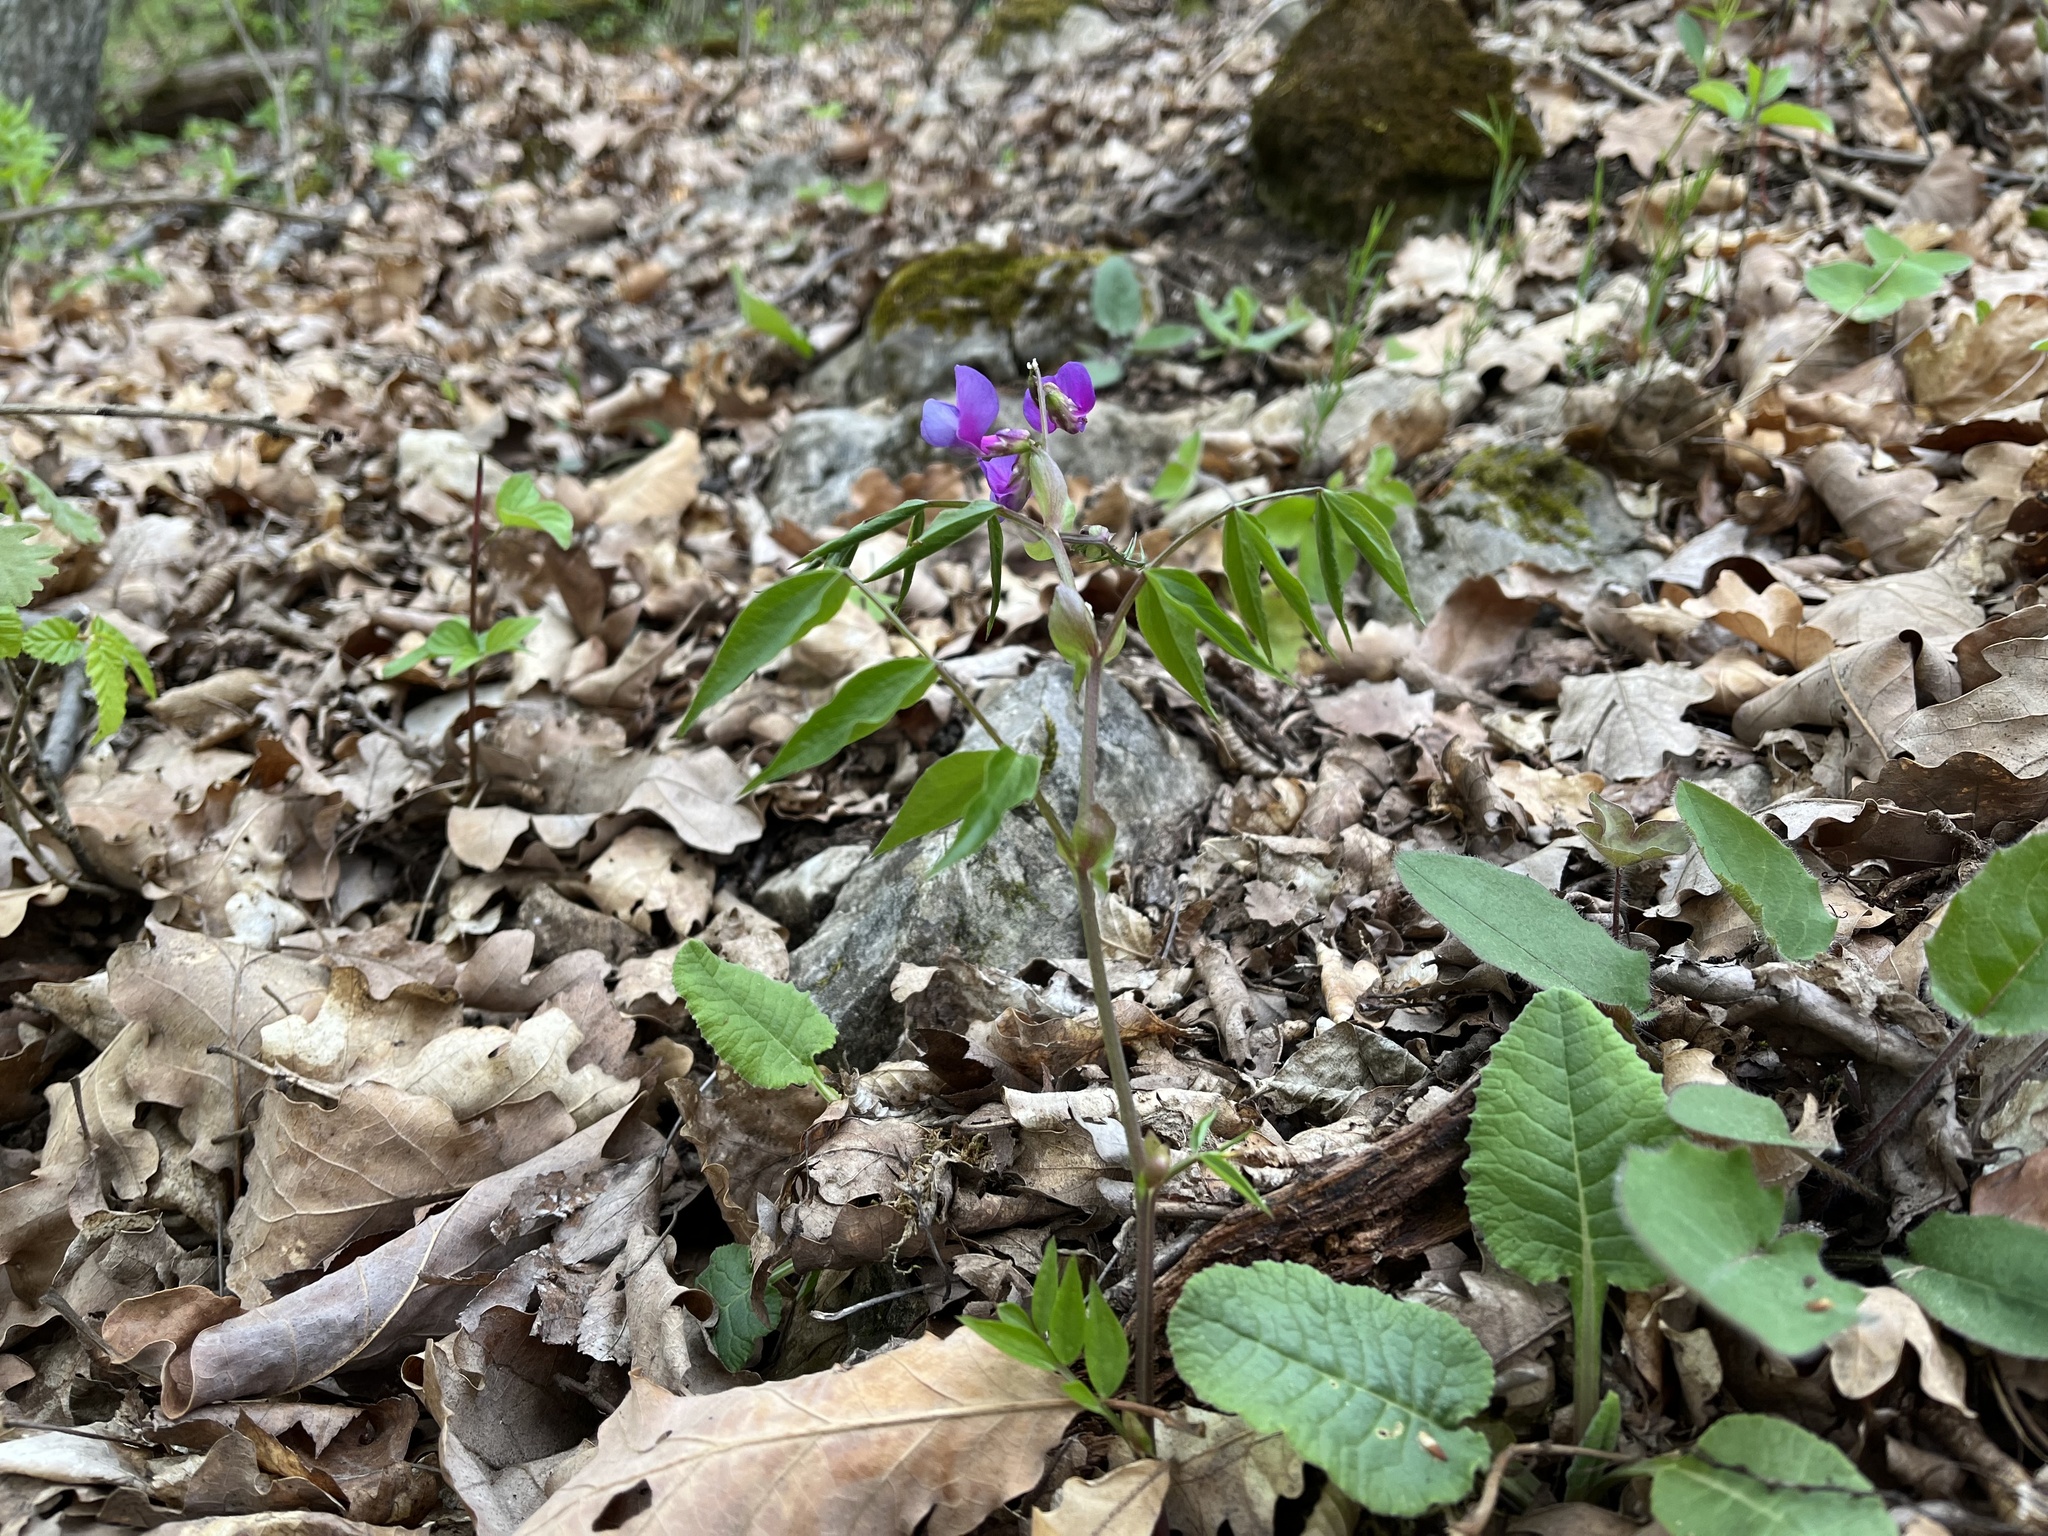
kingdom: Plantae
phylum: Tracheophyta
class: Magnoliopsida
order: Fabales
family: Fabaceae
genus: Lathyrus
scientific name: Lathyrus vernus
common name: Spring pea
